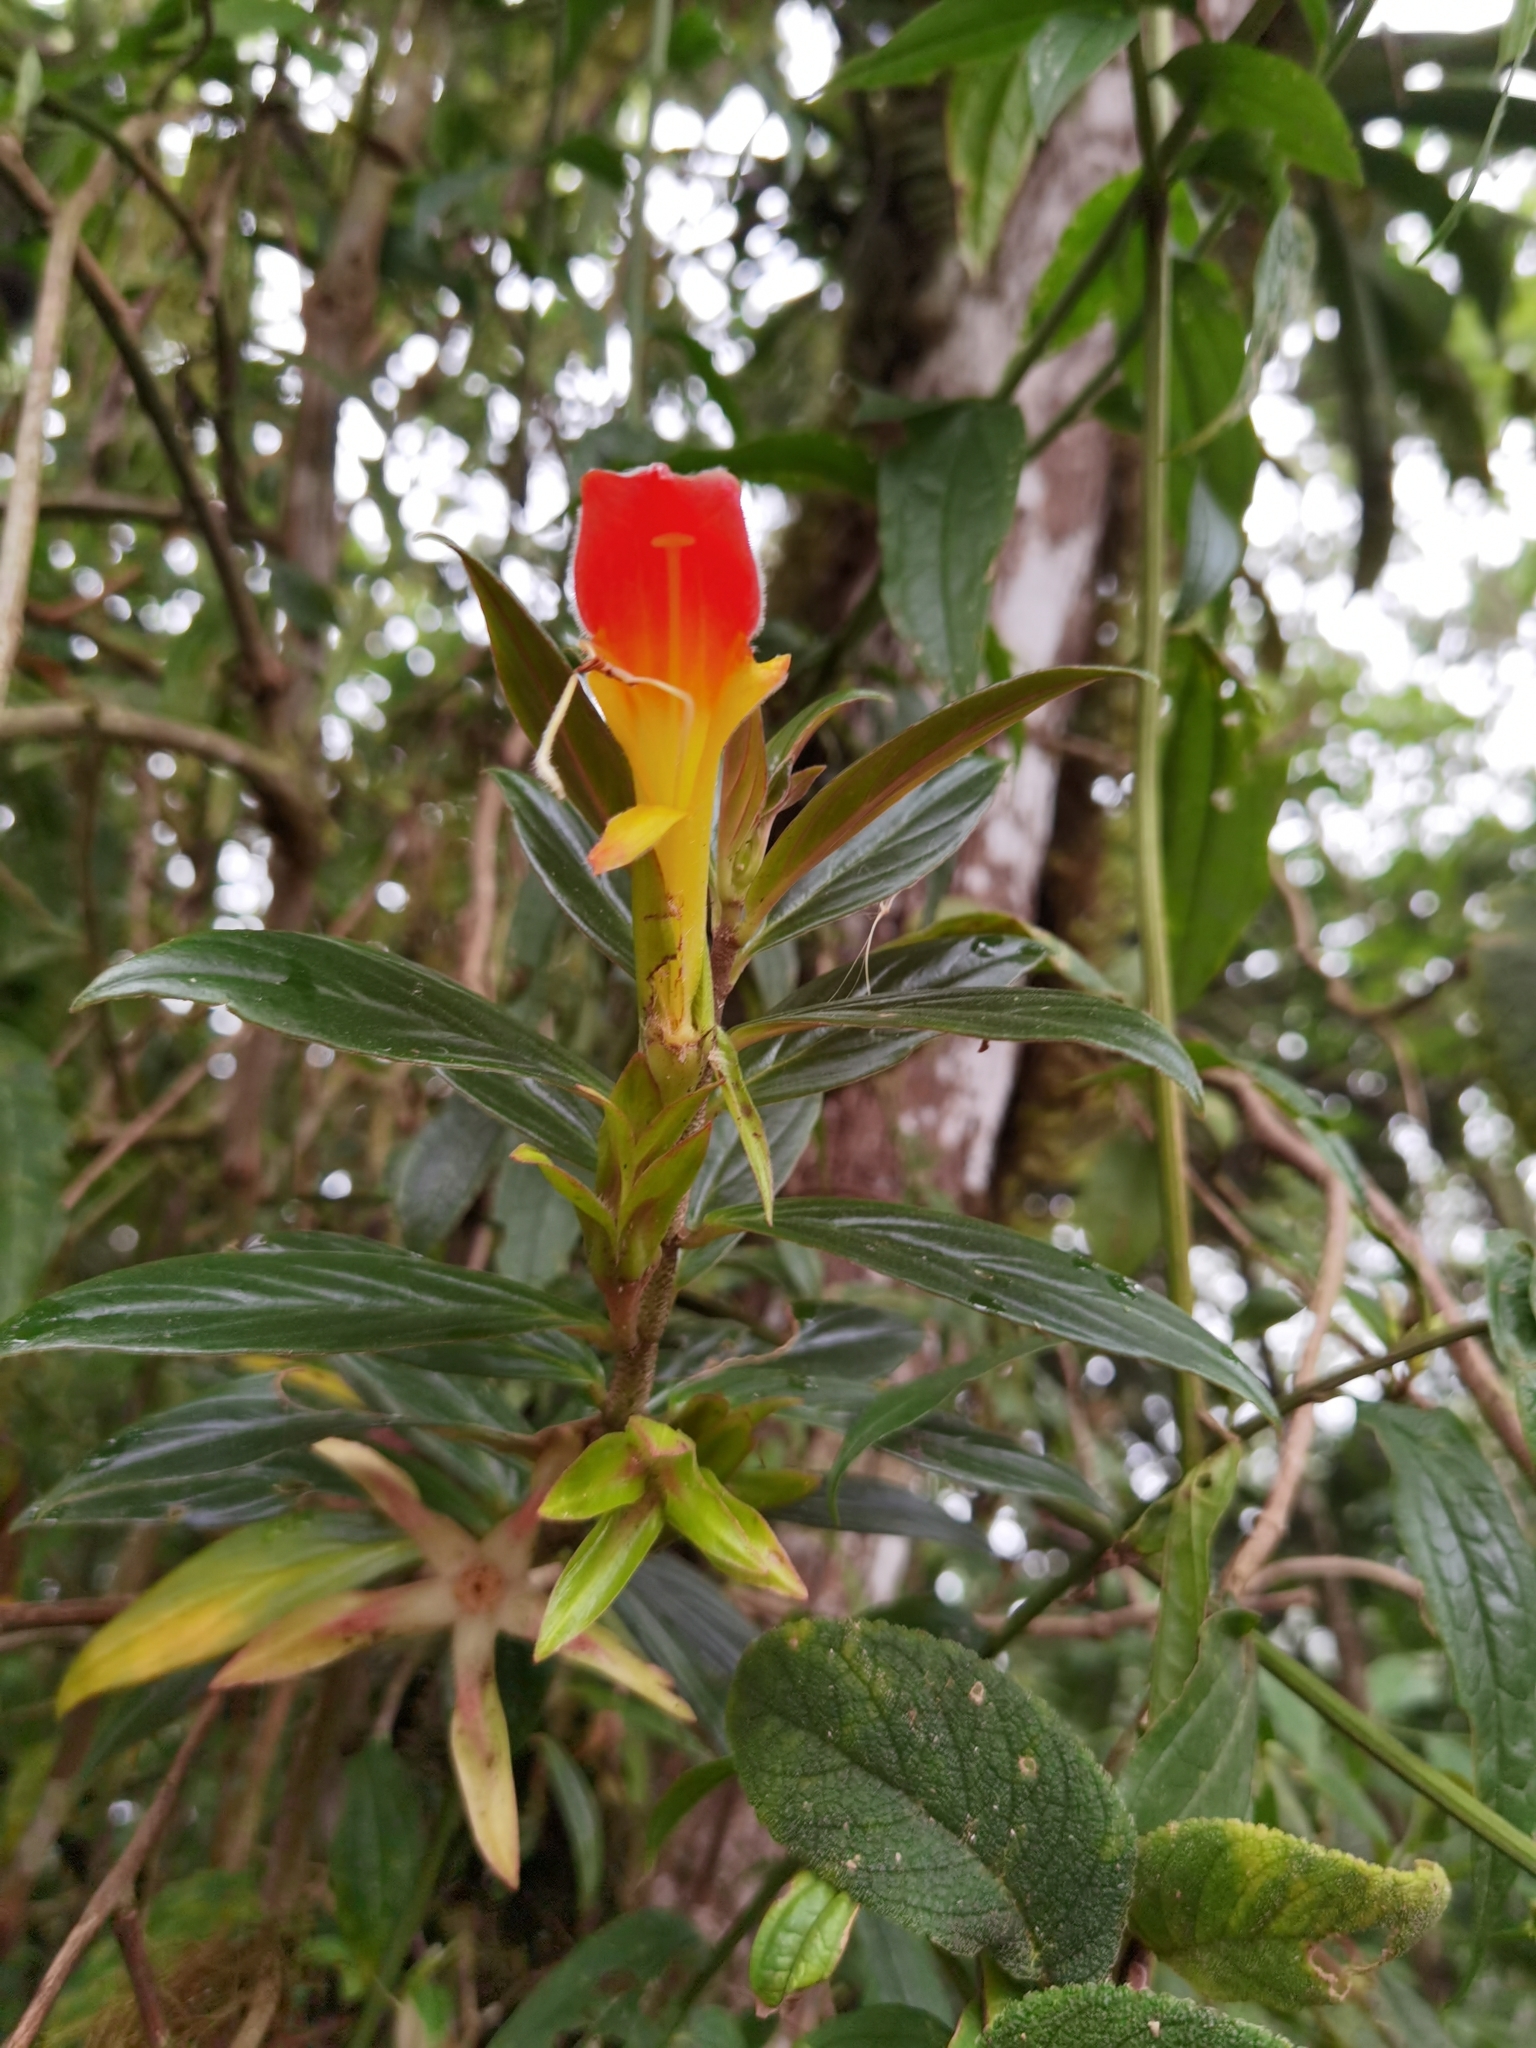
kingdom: Plantae
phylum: Tracheophyta
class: Magnoliopsida
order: Lamiales
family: Gesneriaceae
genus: Columnea
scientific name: Columnea lepidocaula
